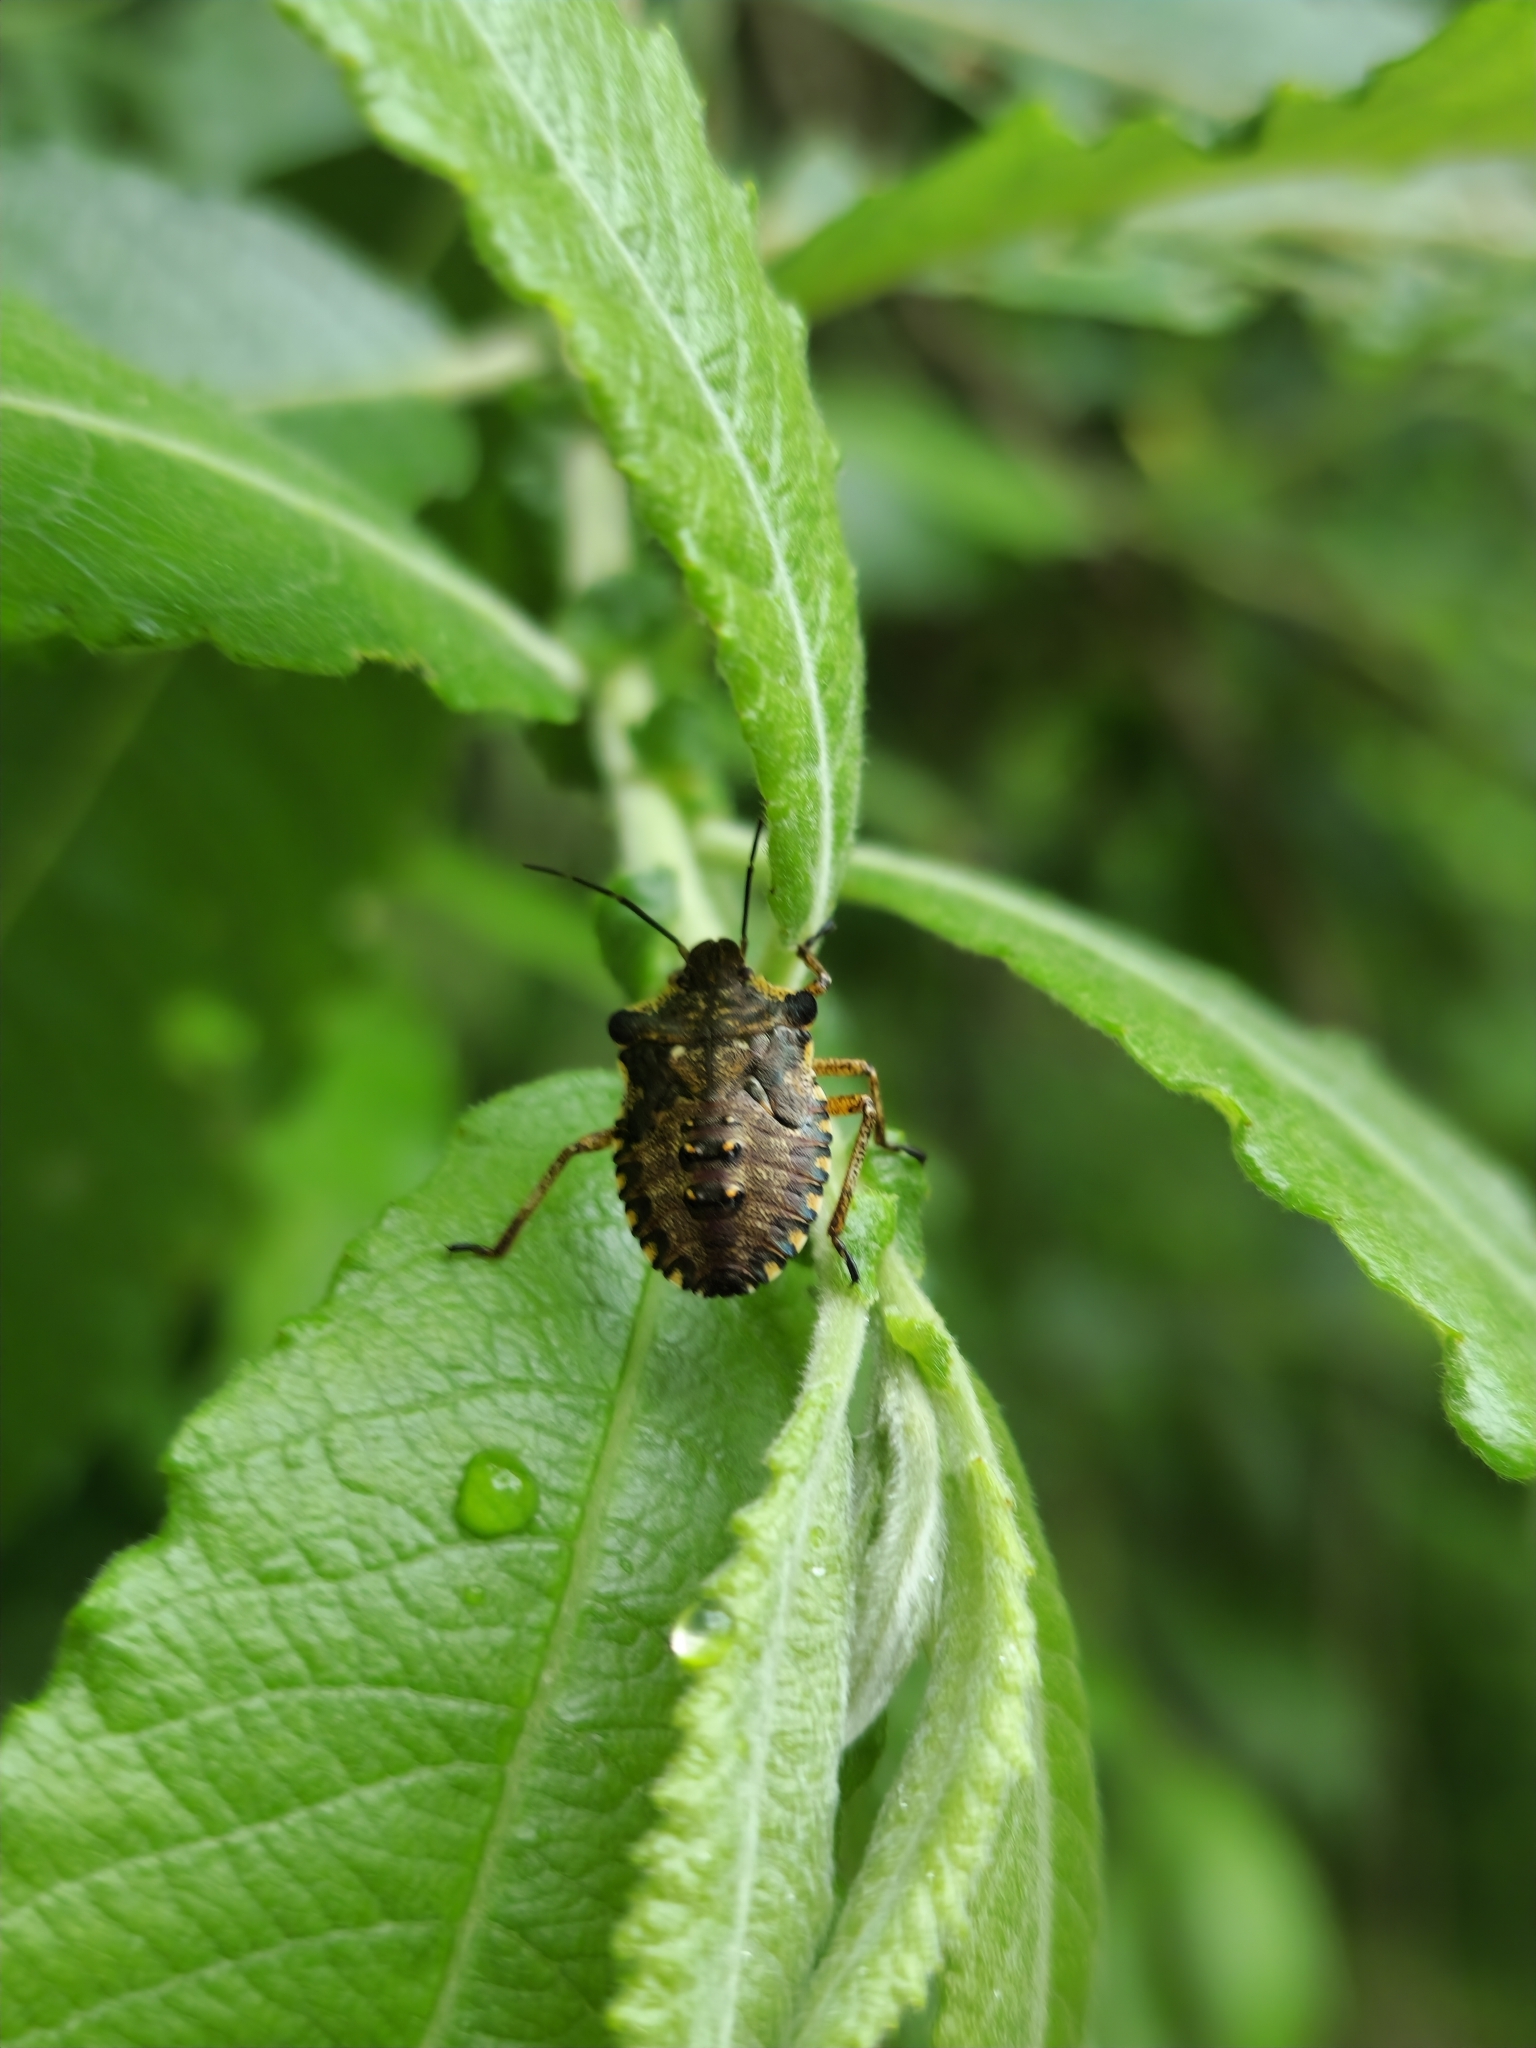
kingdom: Animalia
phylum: Arthropoda
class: Insecta
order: Hemiptera
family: Pentatomidae
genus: Pentatoma
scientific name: Pentatoma rufipes
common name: Forest bug
